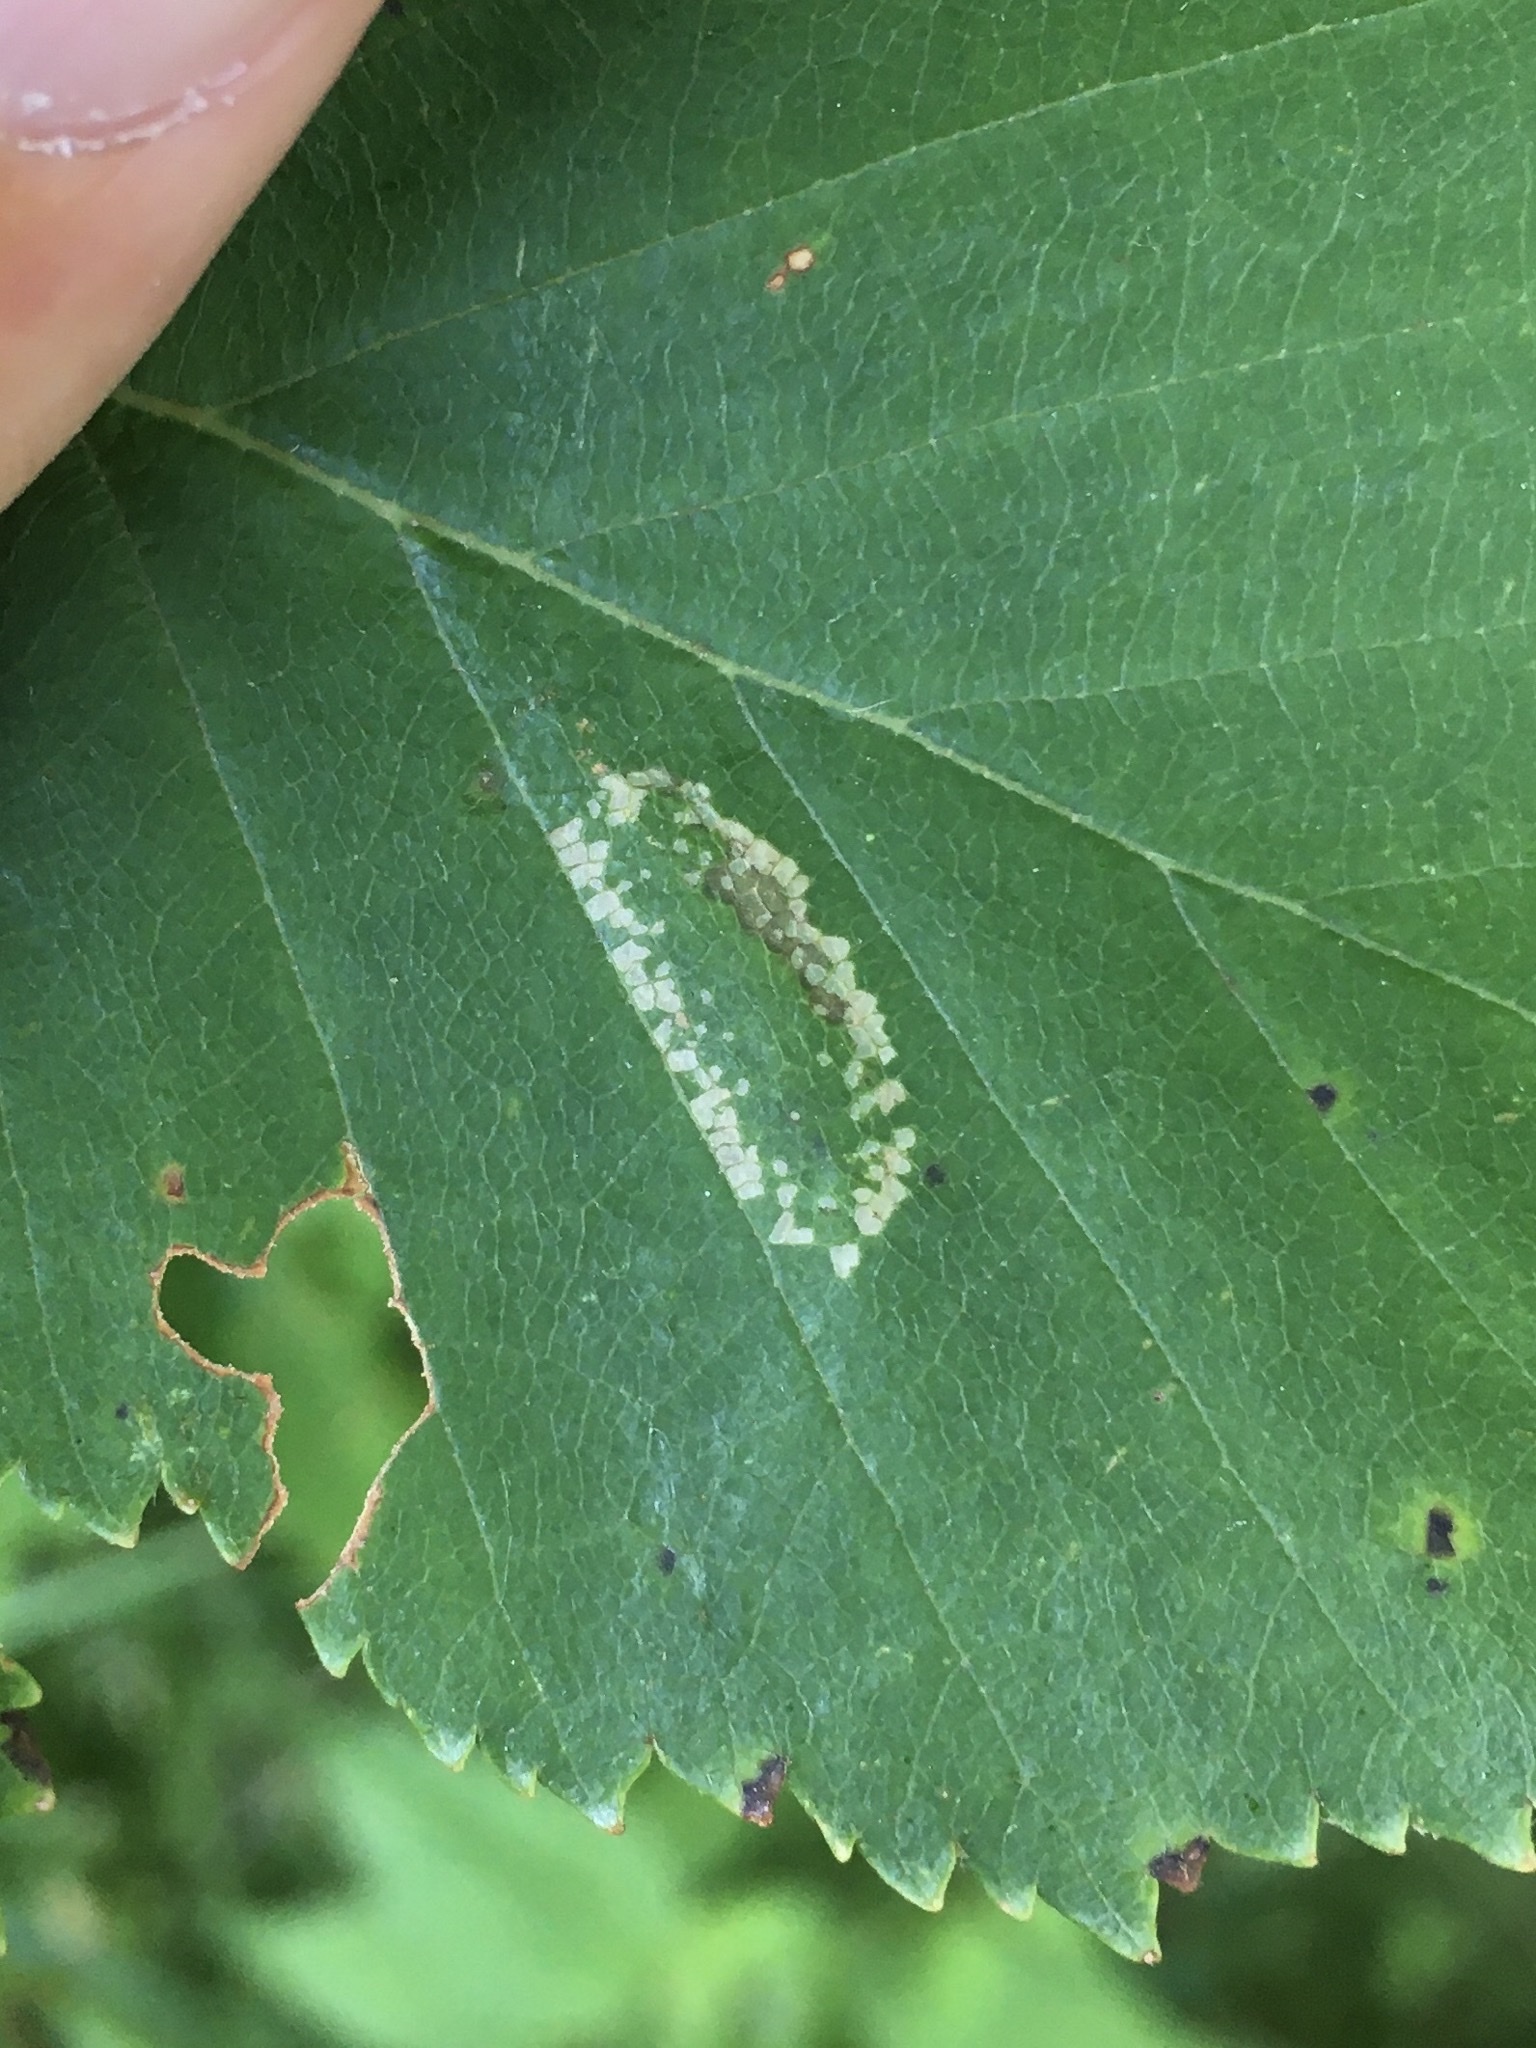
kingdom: Animalia
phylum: Arthropoda
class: Insecta
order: Lepidoptera
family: Gracillariidae
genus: Phyllonorycter
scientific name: Phyllonorycter obscuricostella
